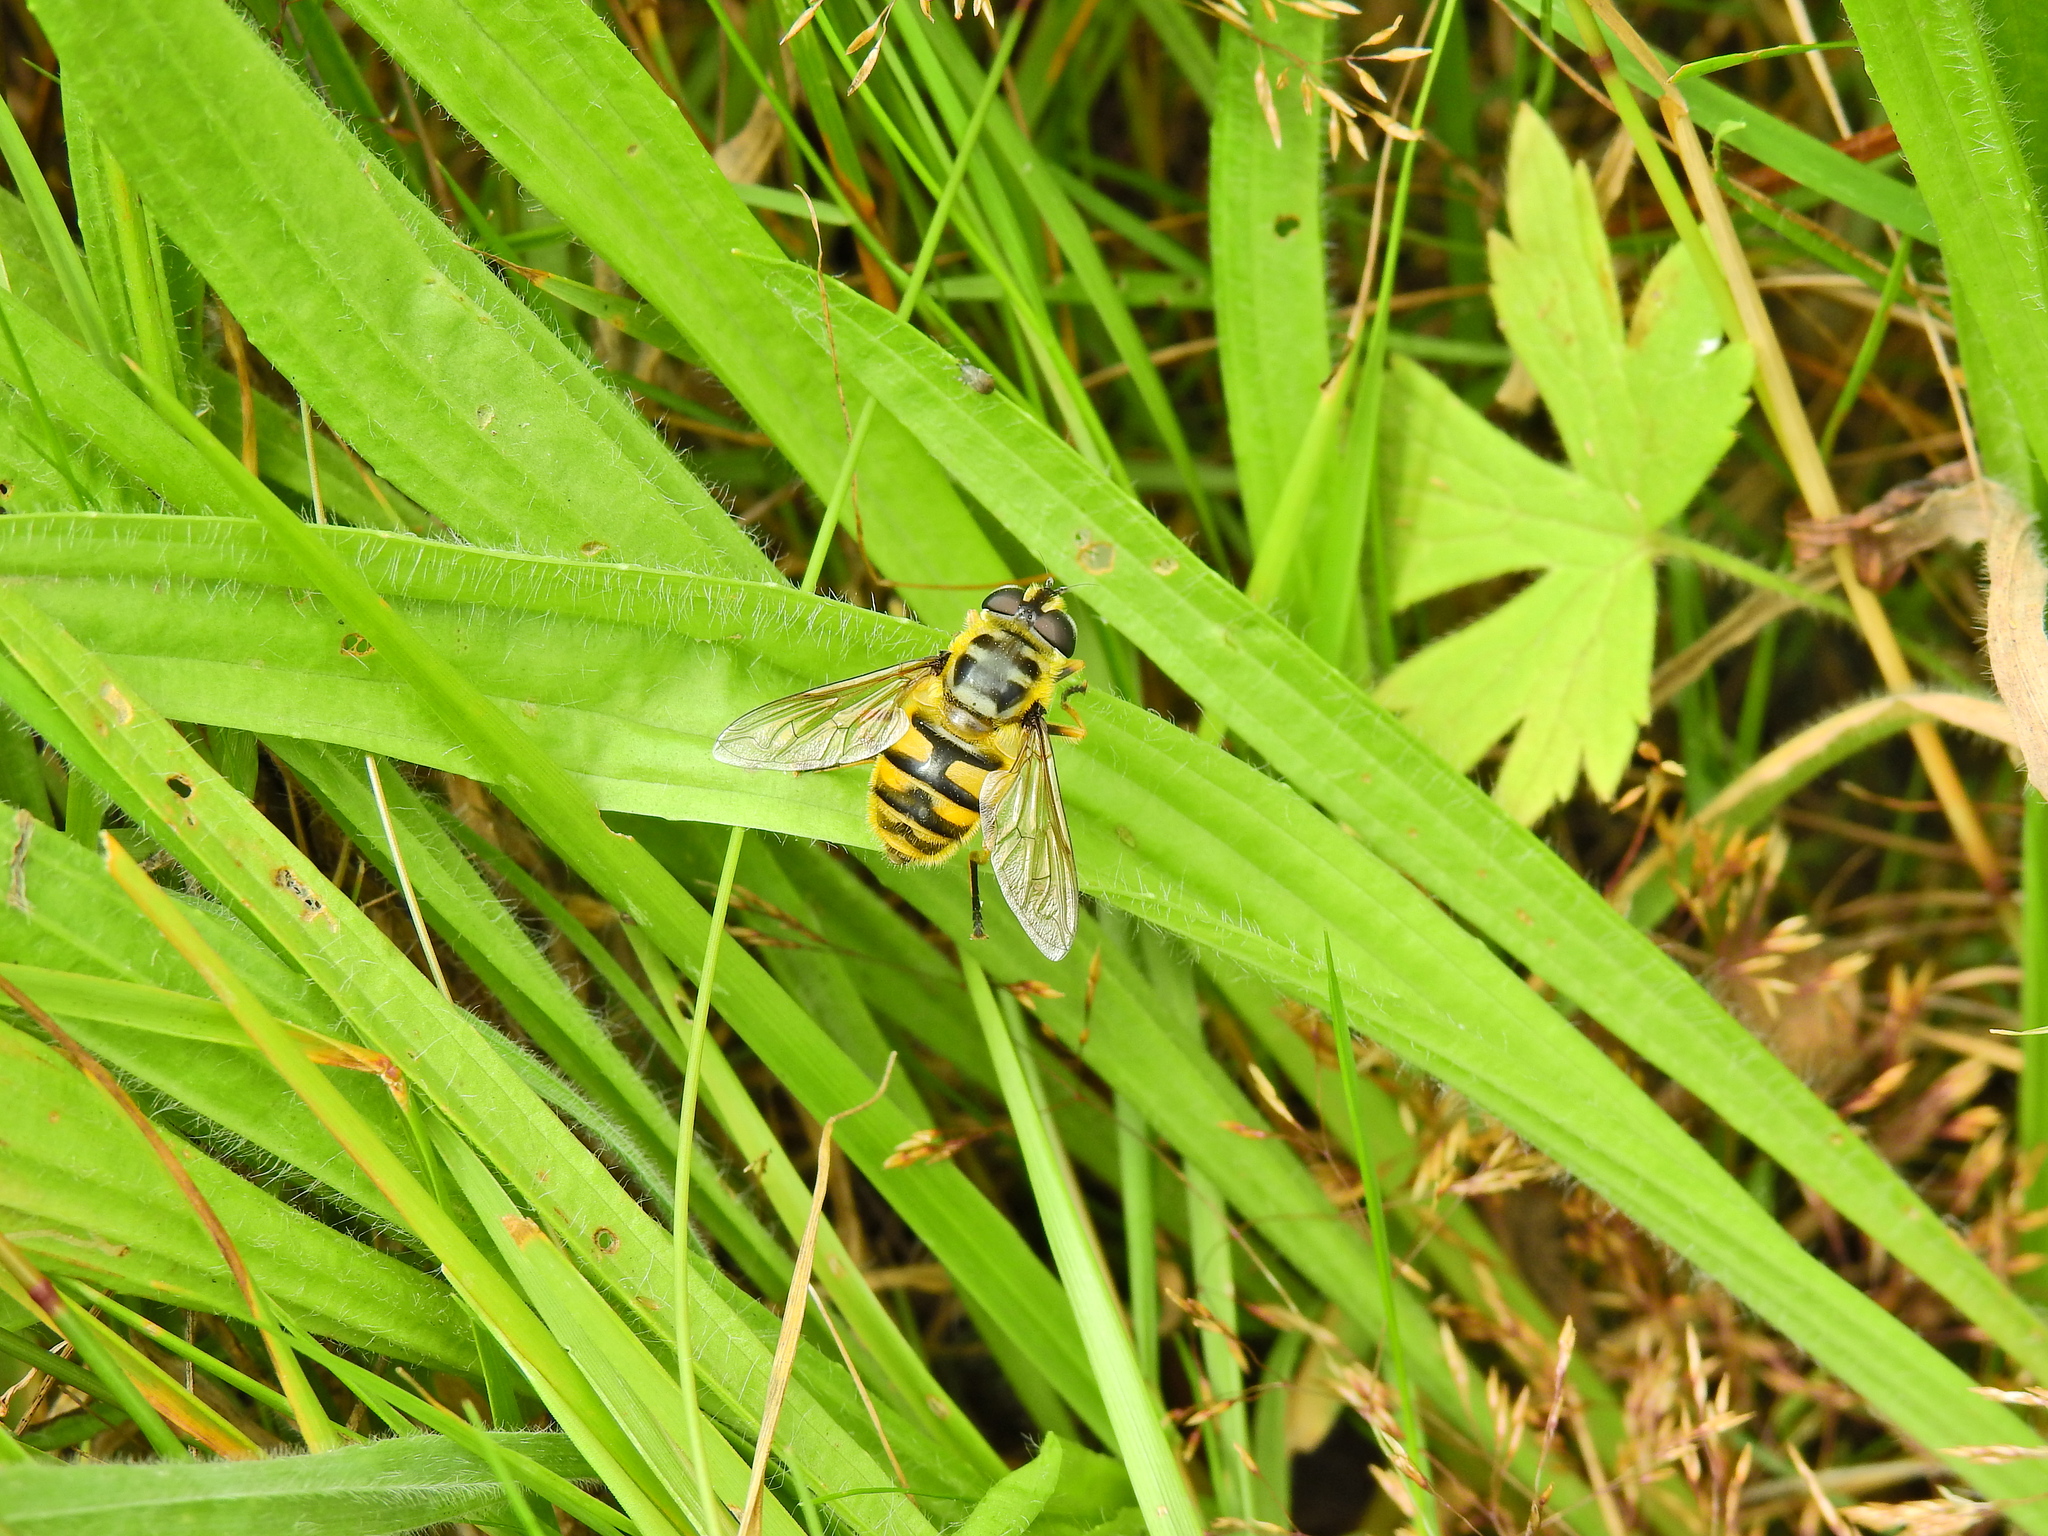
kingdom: Animalia
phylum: Arthropoda
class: Insecta
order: Diptera
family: Syrphidae
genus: Myathropa
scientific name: Myathropa florea
